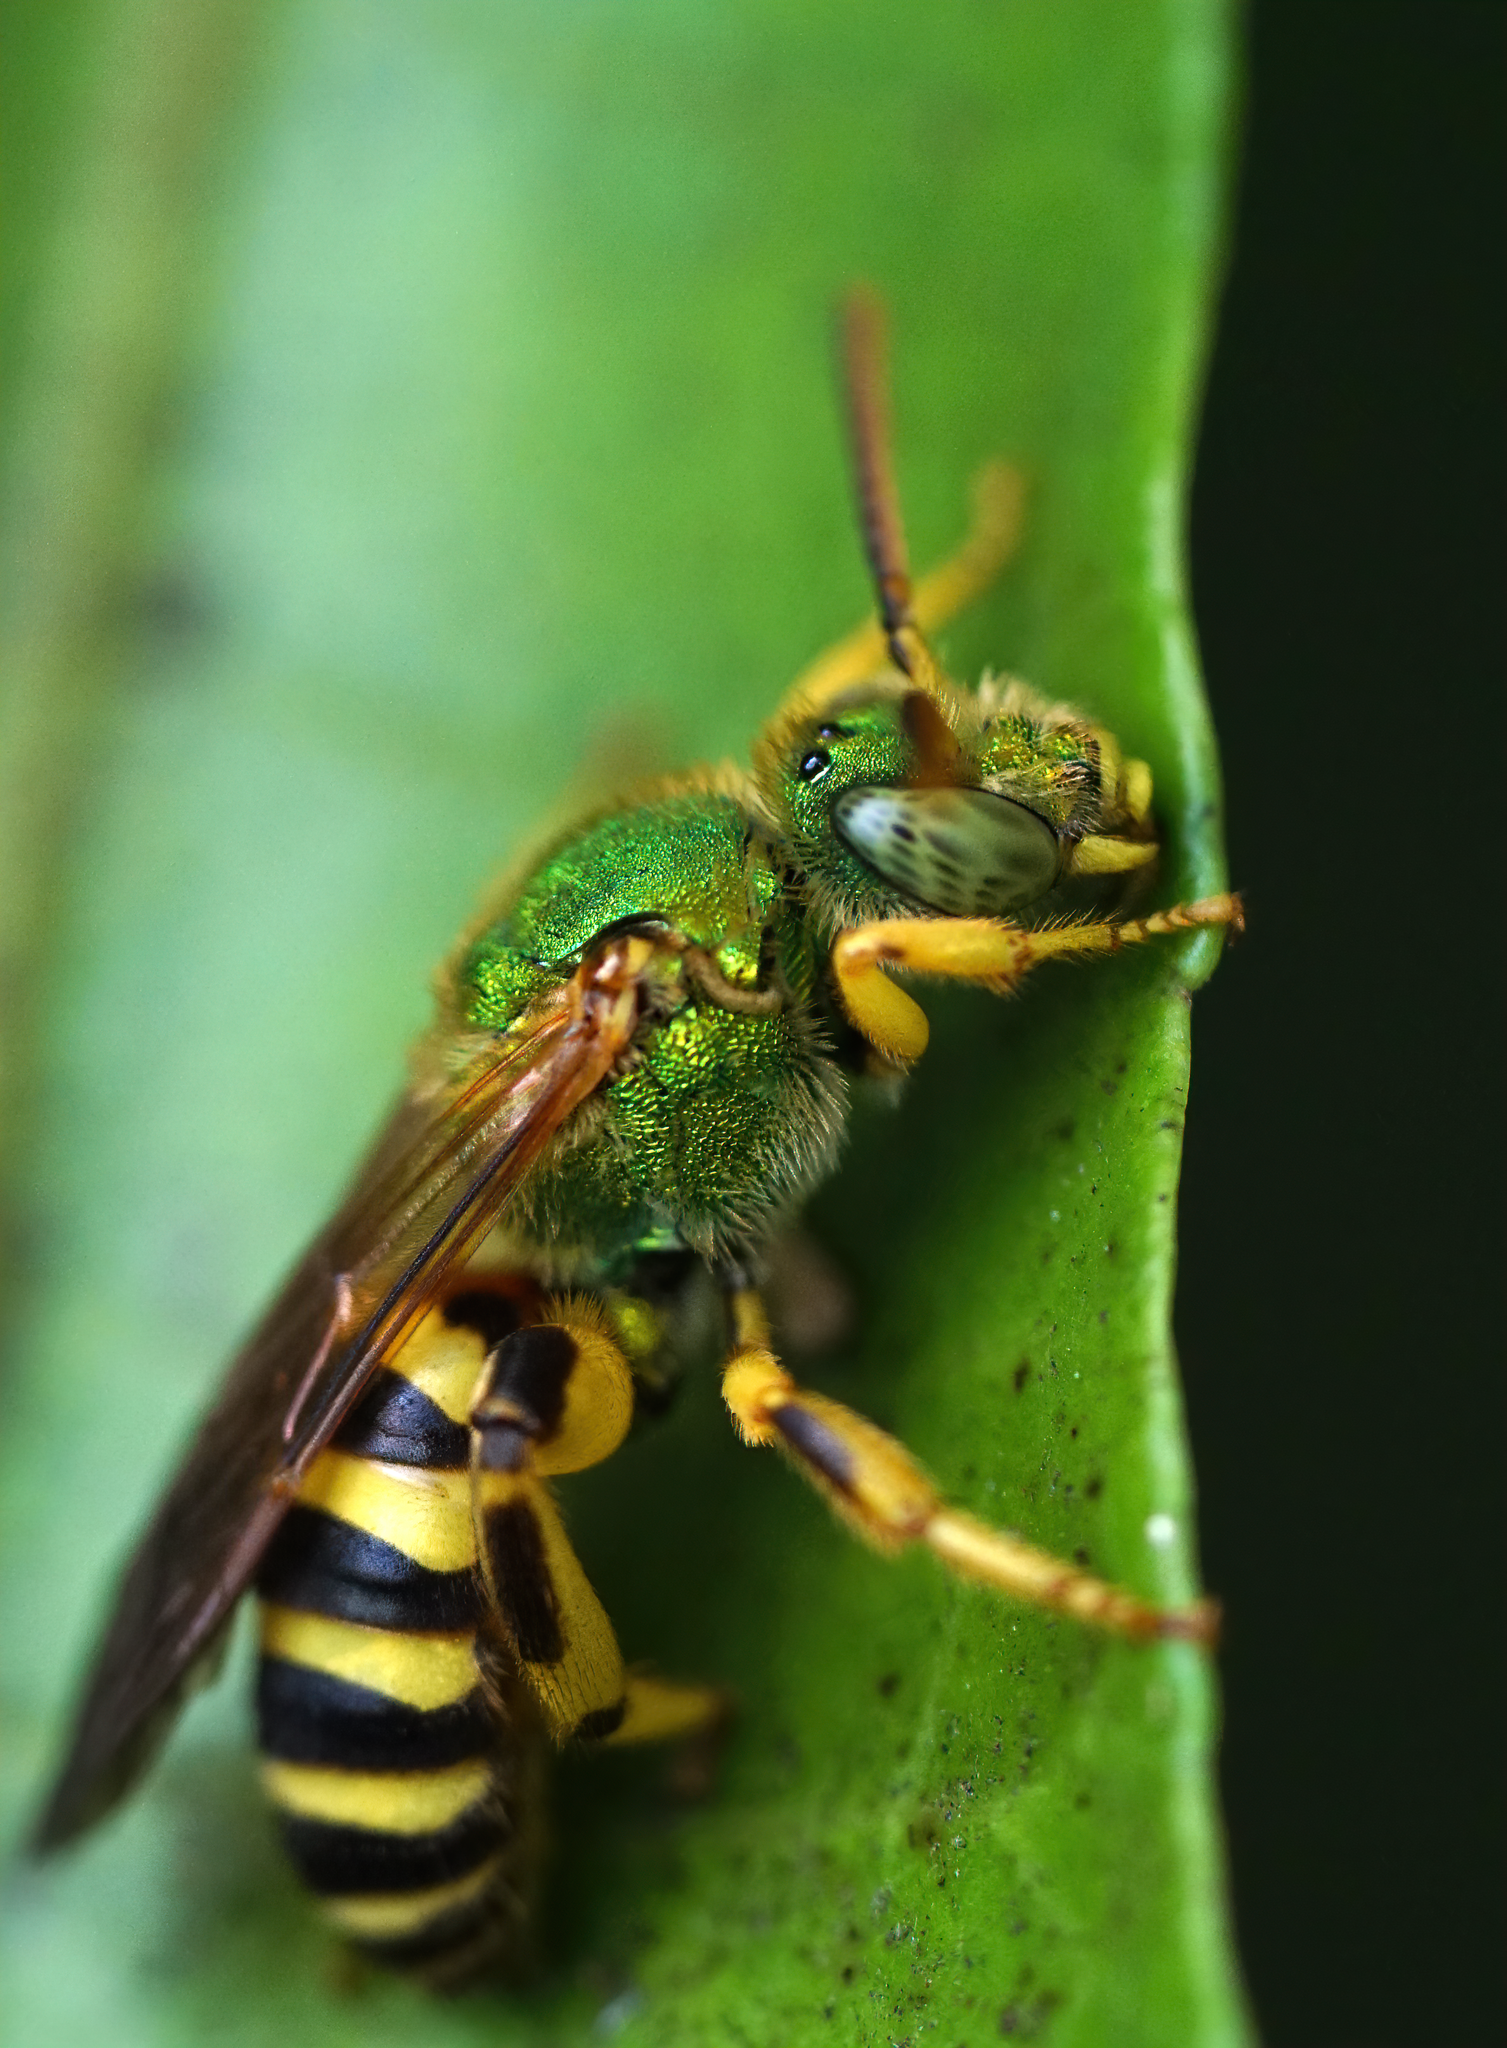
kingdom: Animalia
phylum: Arthropoda
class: Insecta
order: Hymenoptera
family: Halictidae
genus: Agapostemon
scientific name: Agapostemon splendens
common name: Brown-winged striped sweat bee
